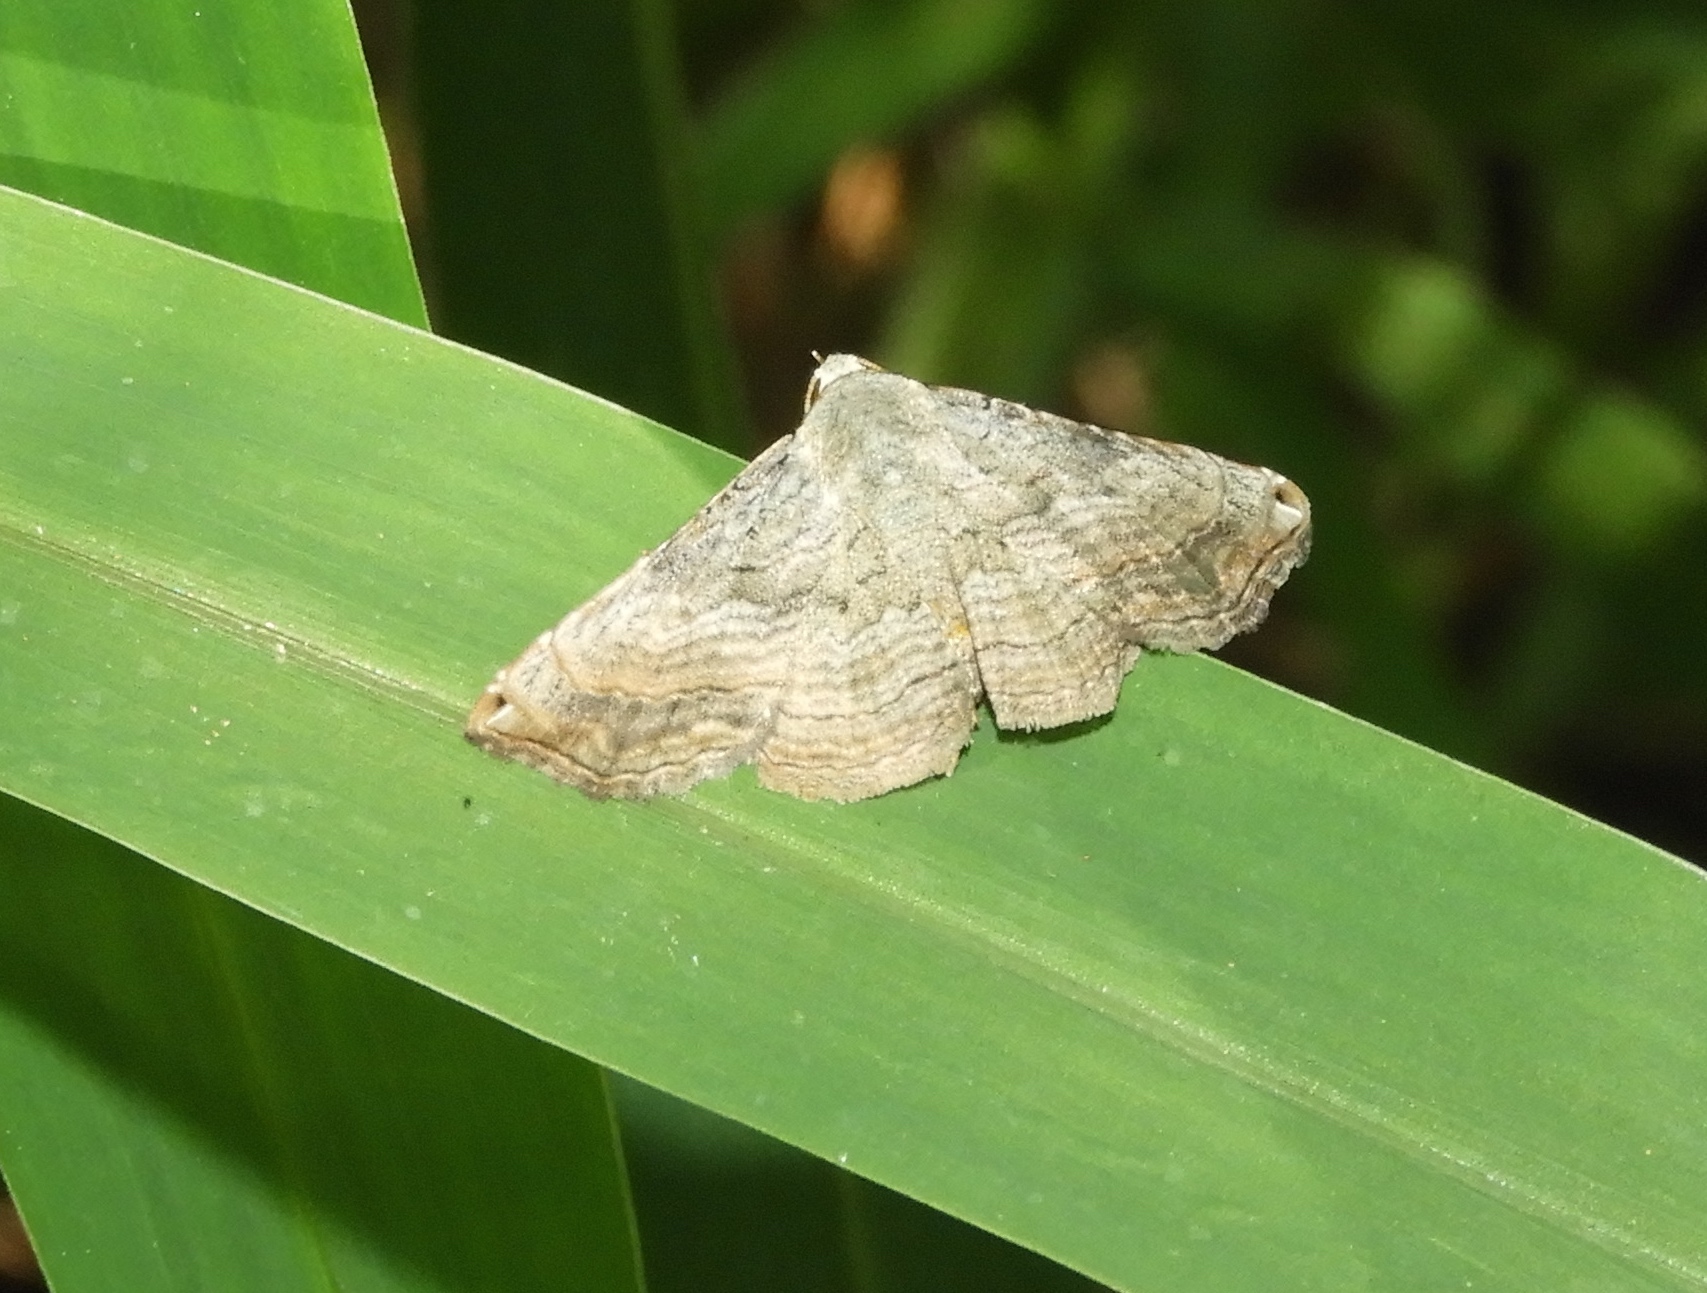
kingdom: Animalia
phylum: Arthropoda
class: Insecta
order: Lepidoptera
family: Erebidae
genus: Tyrissa
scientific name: Tyrissa multilinea
